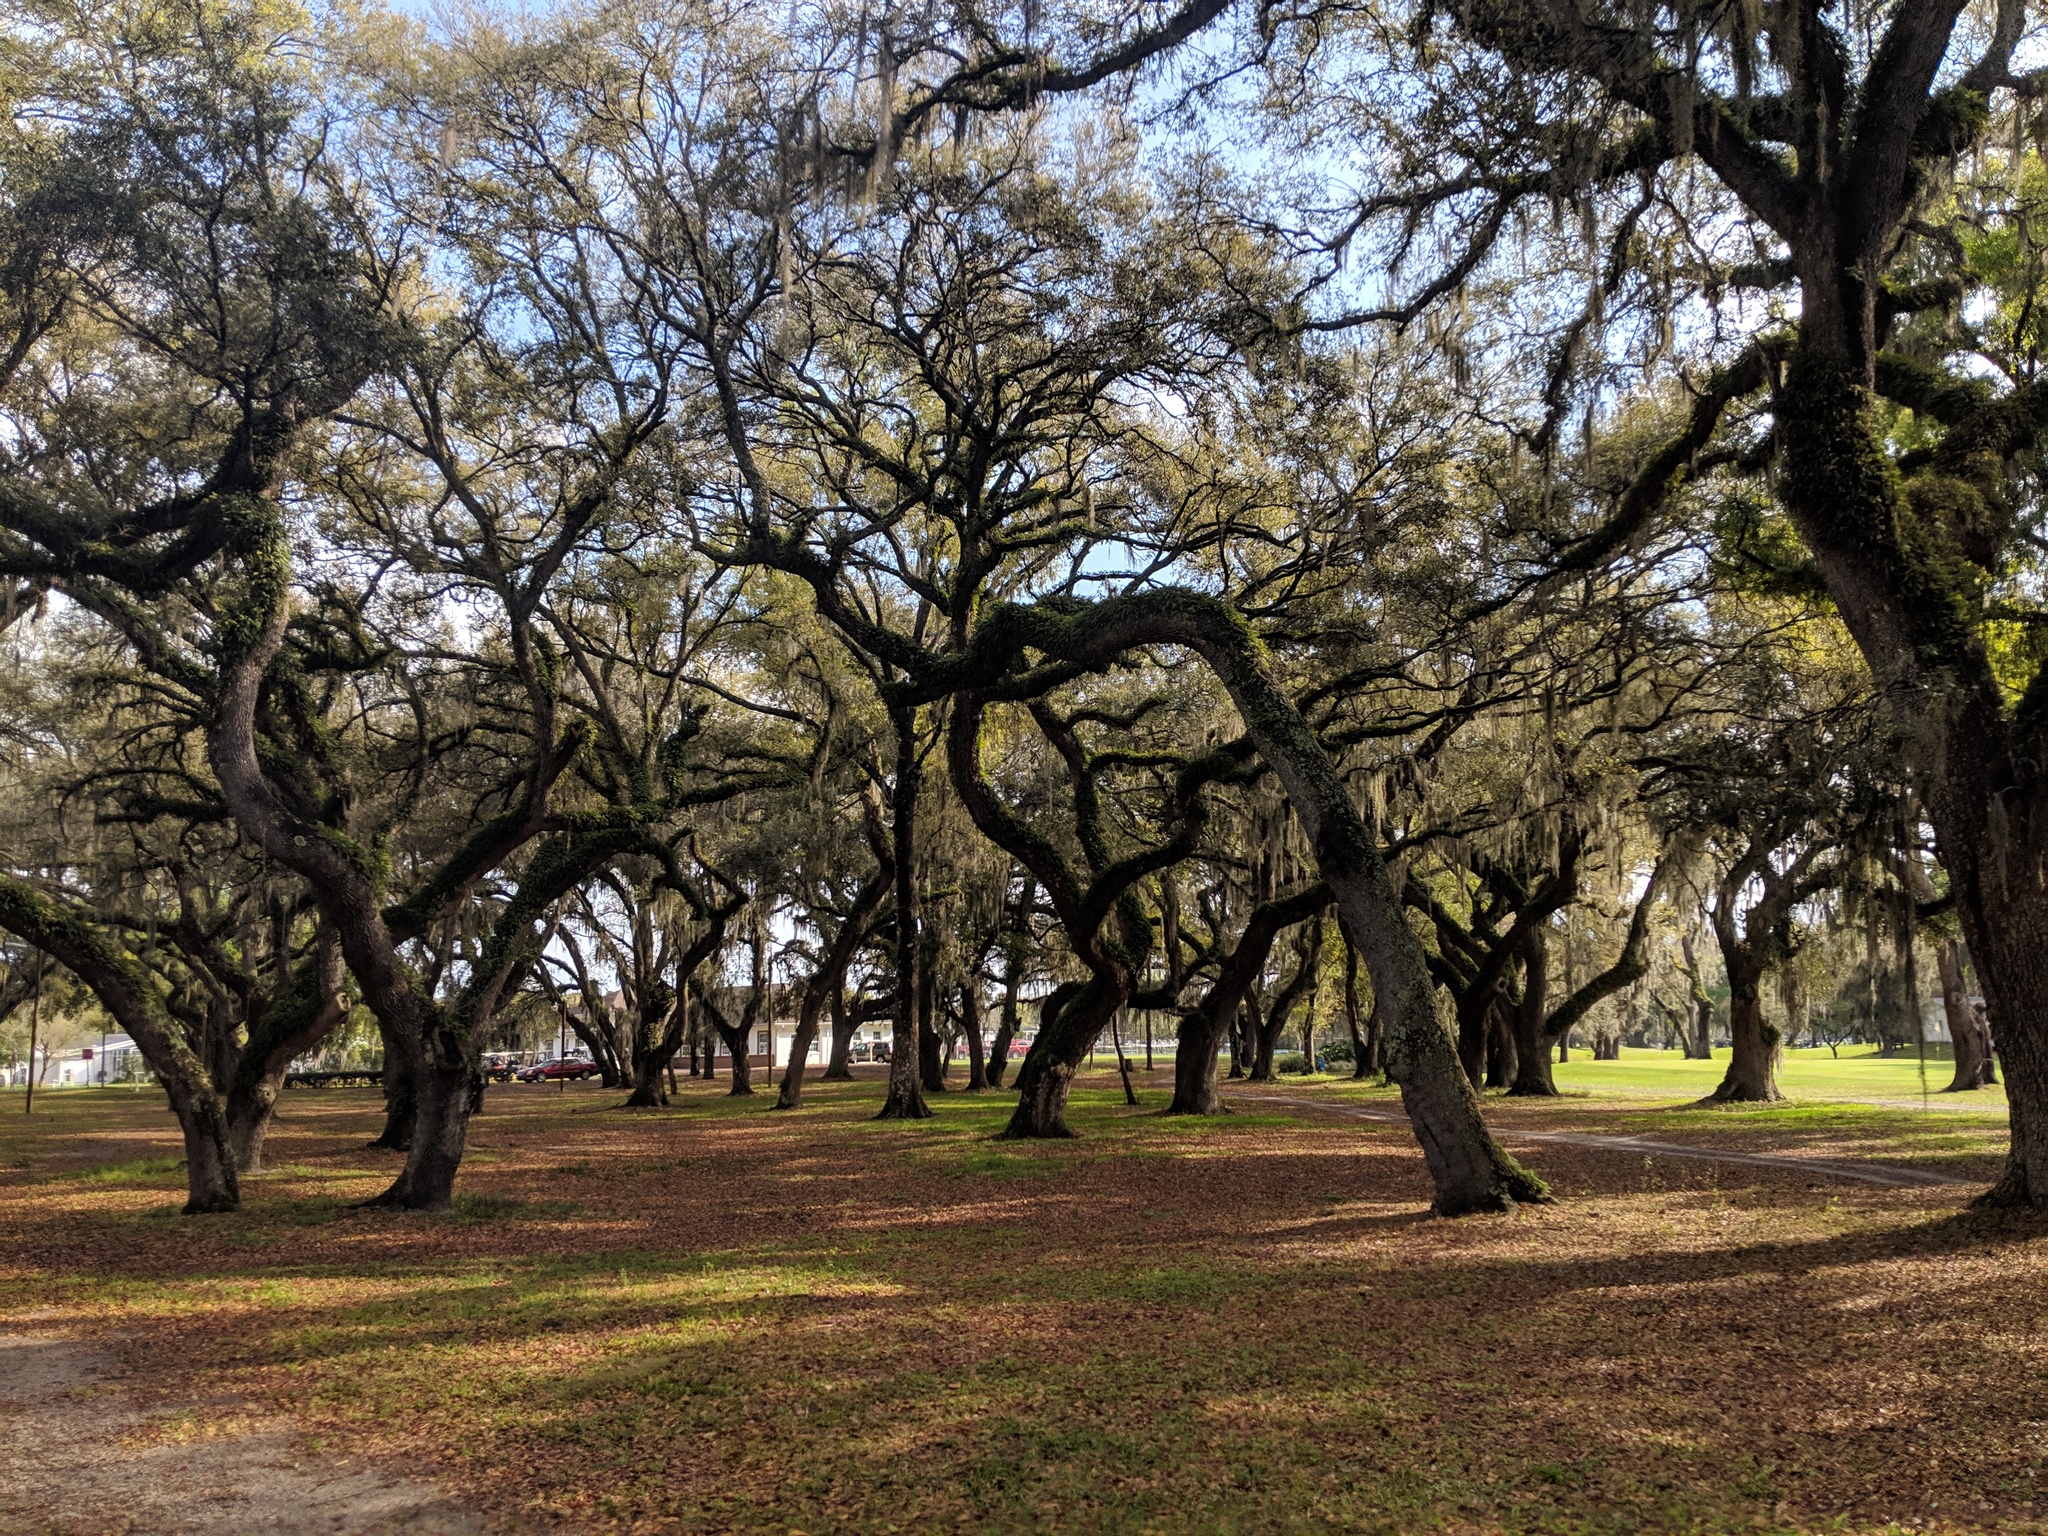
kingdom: Plantae
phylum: Tracheophyta
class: Magnoliopsida
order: Fagales
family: Fagaceae
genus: Quercus
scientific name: Quercus virginiana
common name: Southern live oak
